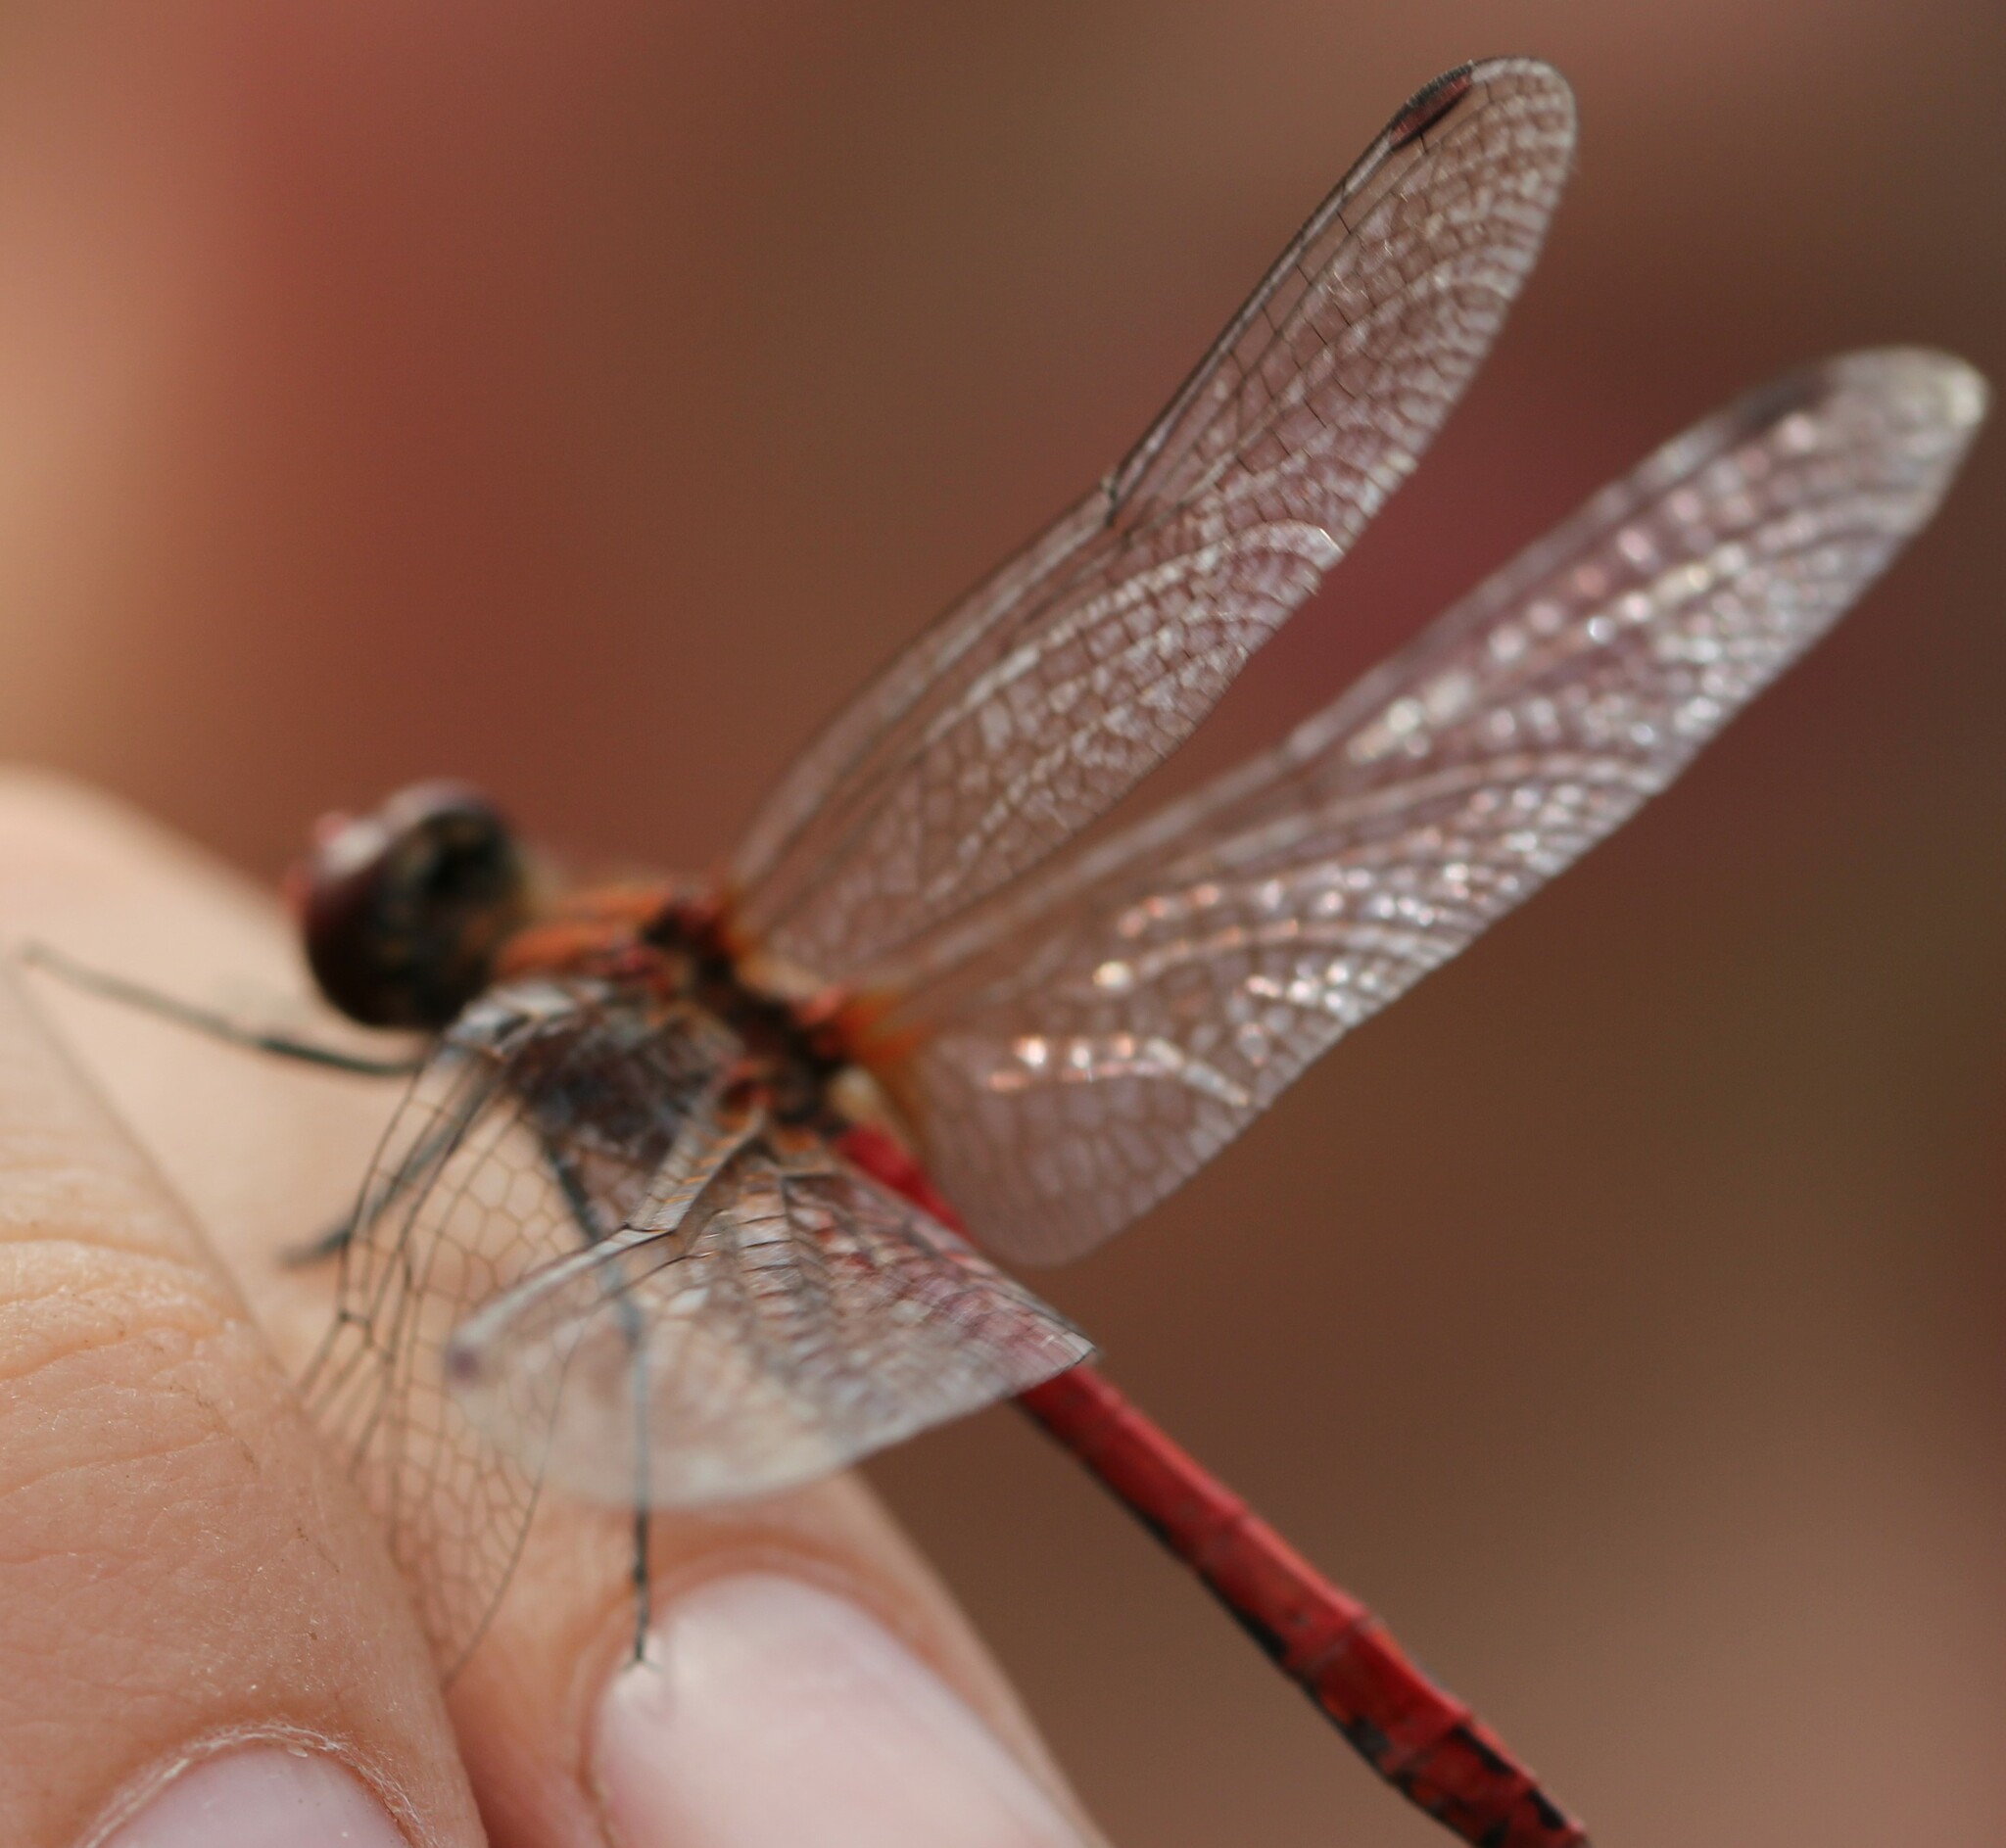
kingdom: Animalia
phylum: Arthropoda
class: Insecta
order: Odonata
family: Libellulidae
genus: Sympetrum
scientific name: Sympetrum sanguineum
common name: Ruddy darter
